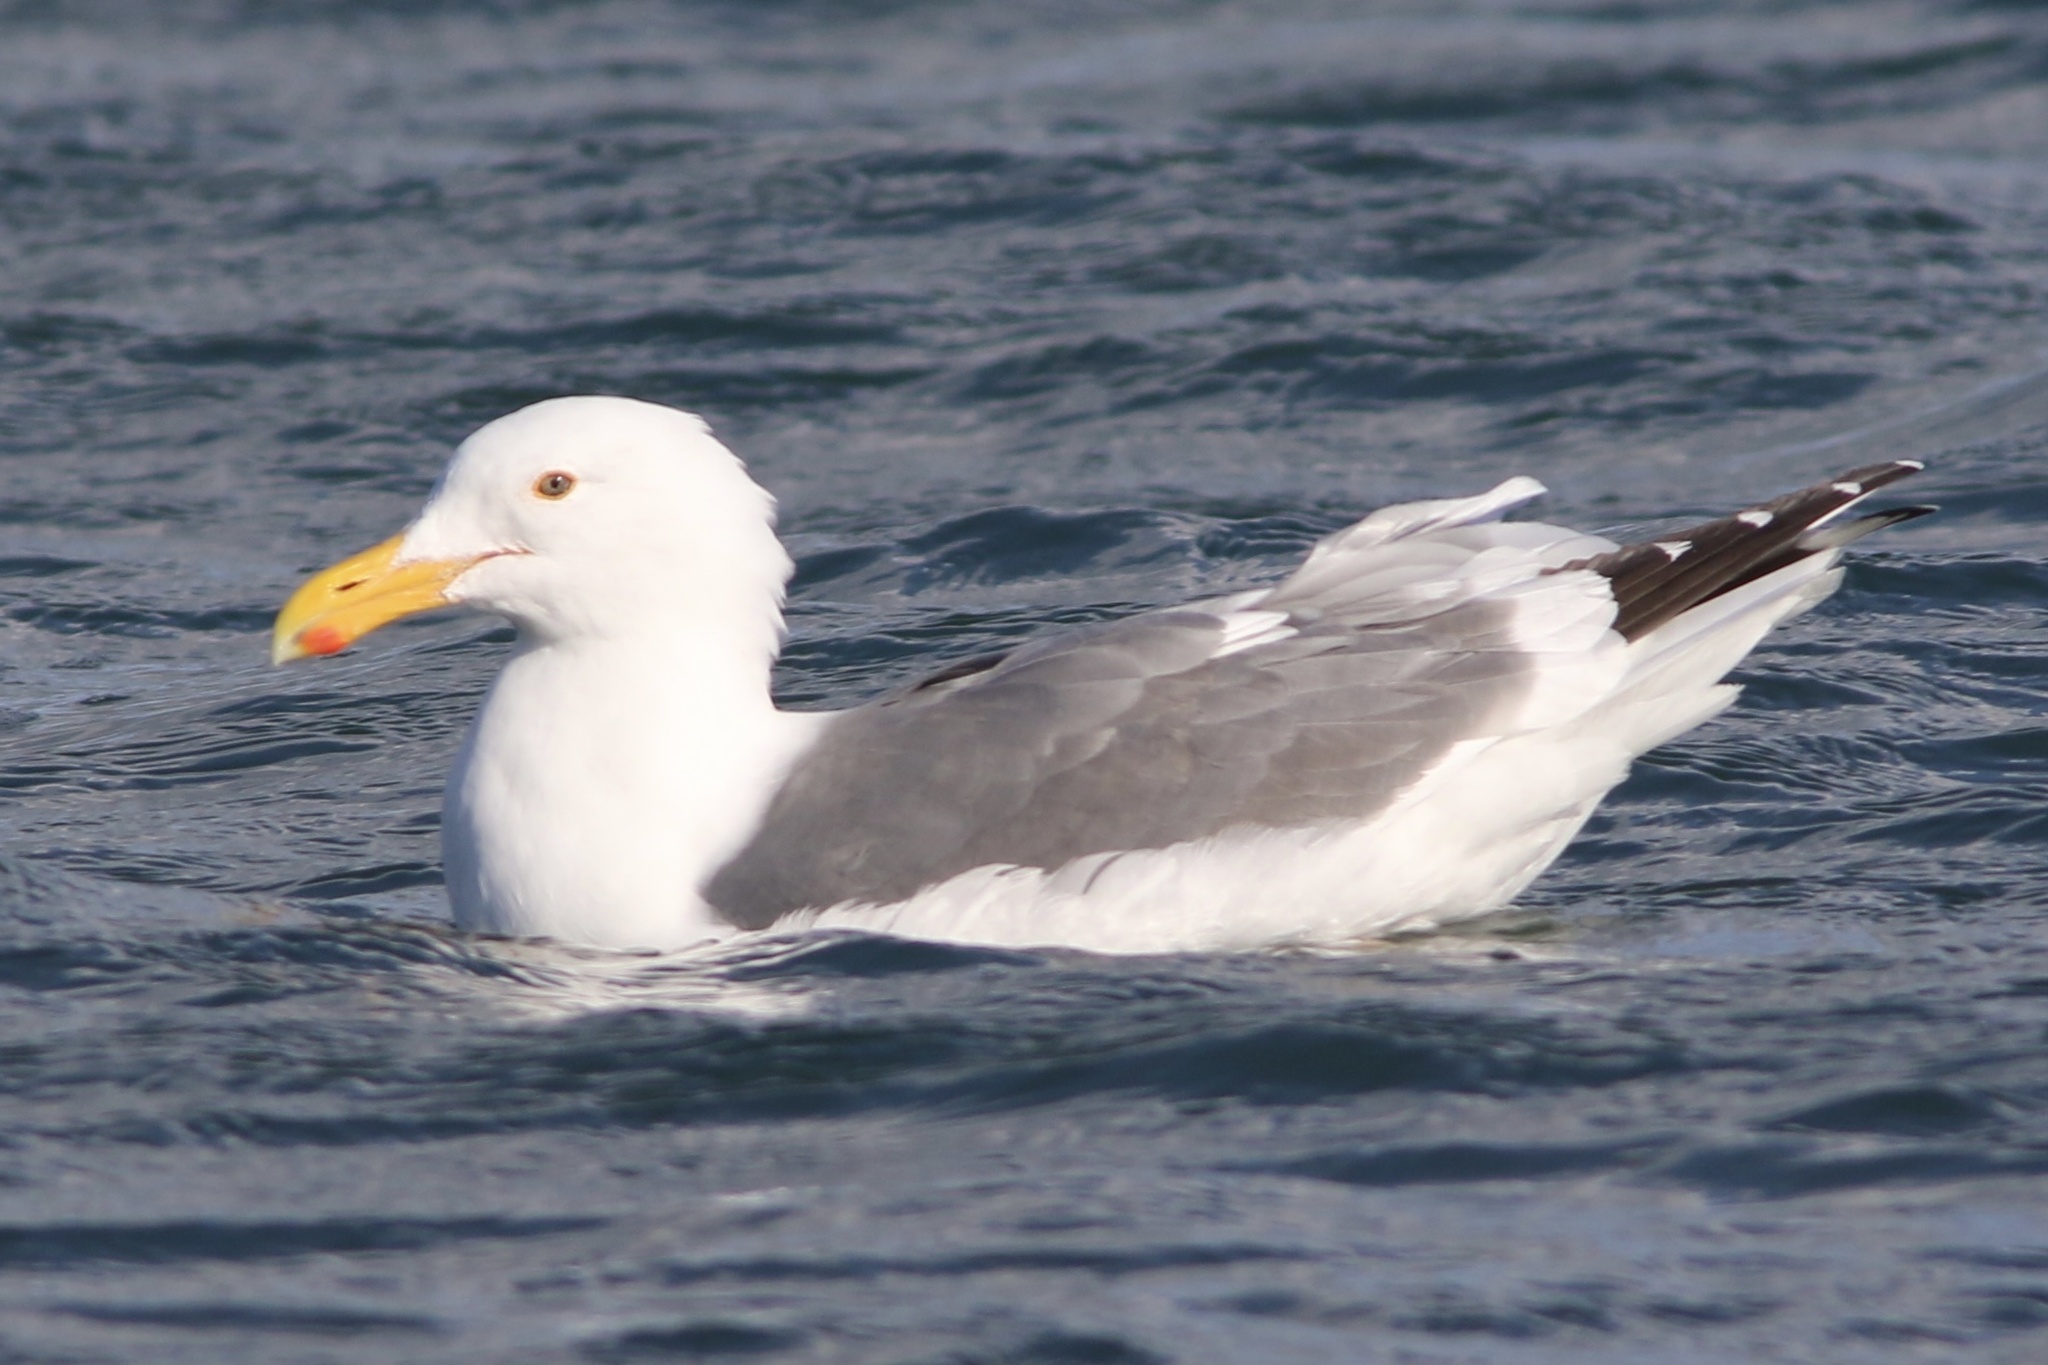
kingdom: Animalia
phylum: Chordata
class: Aves
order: Charadriiformes
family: Laridae
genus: Larus
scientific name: Larus occidentalis
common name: Western gull
